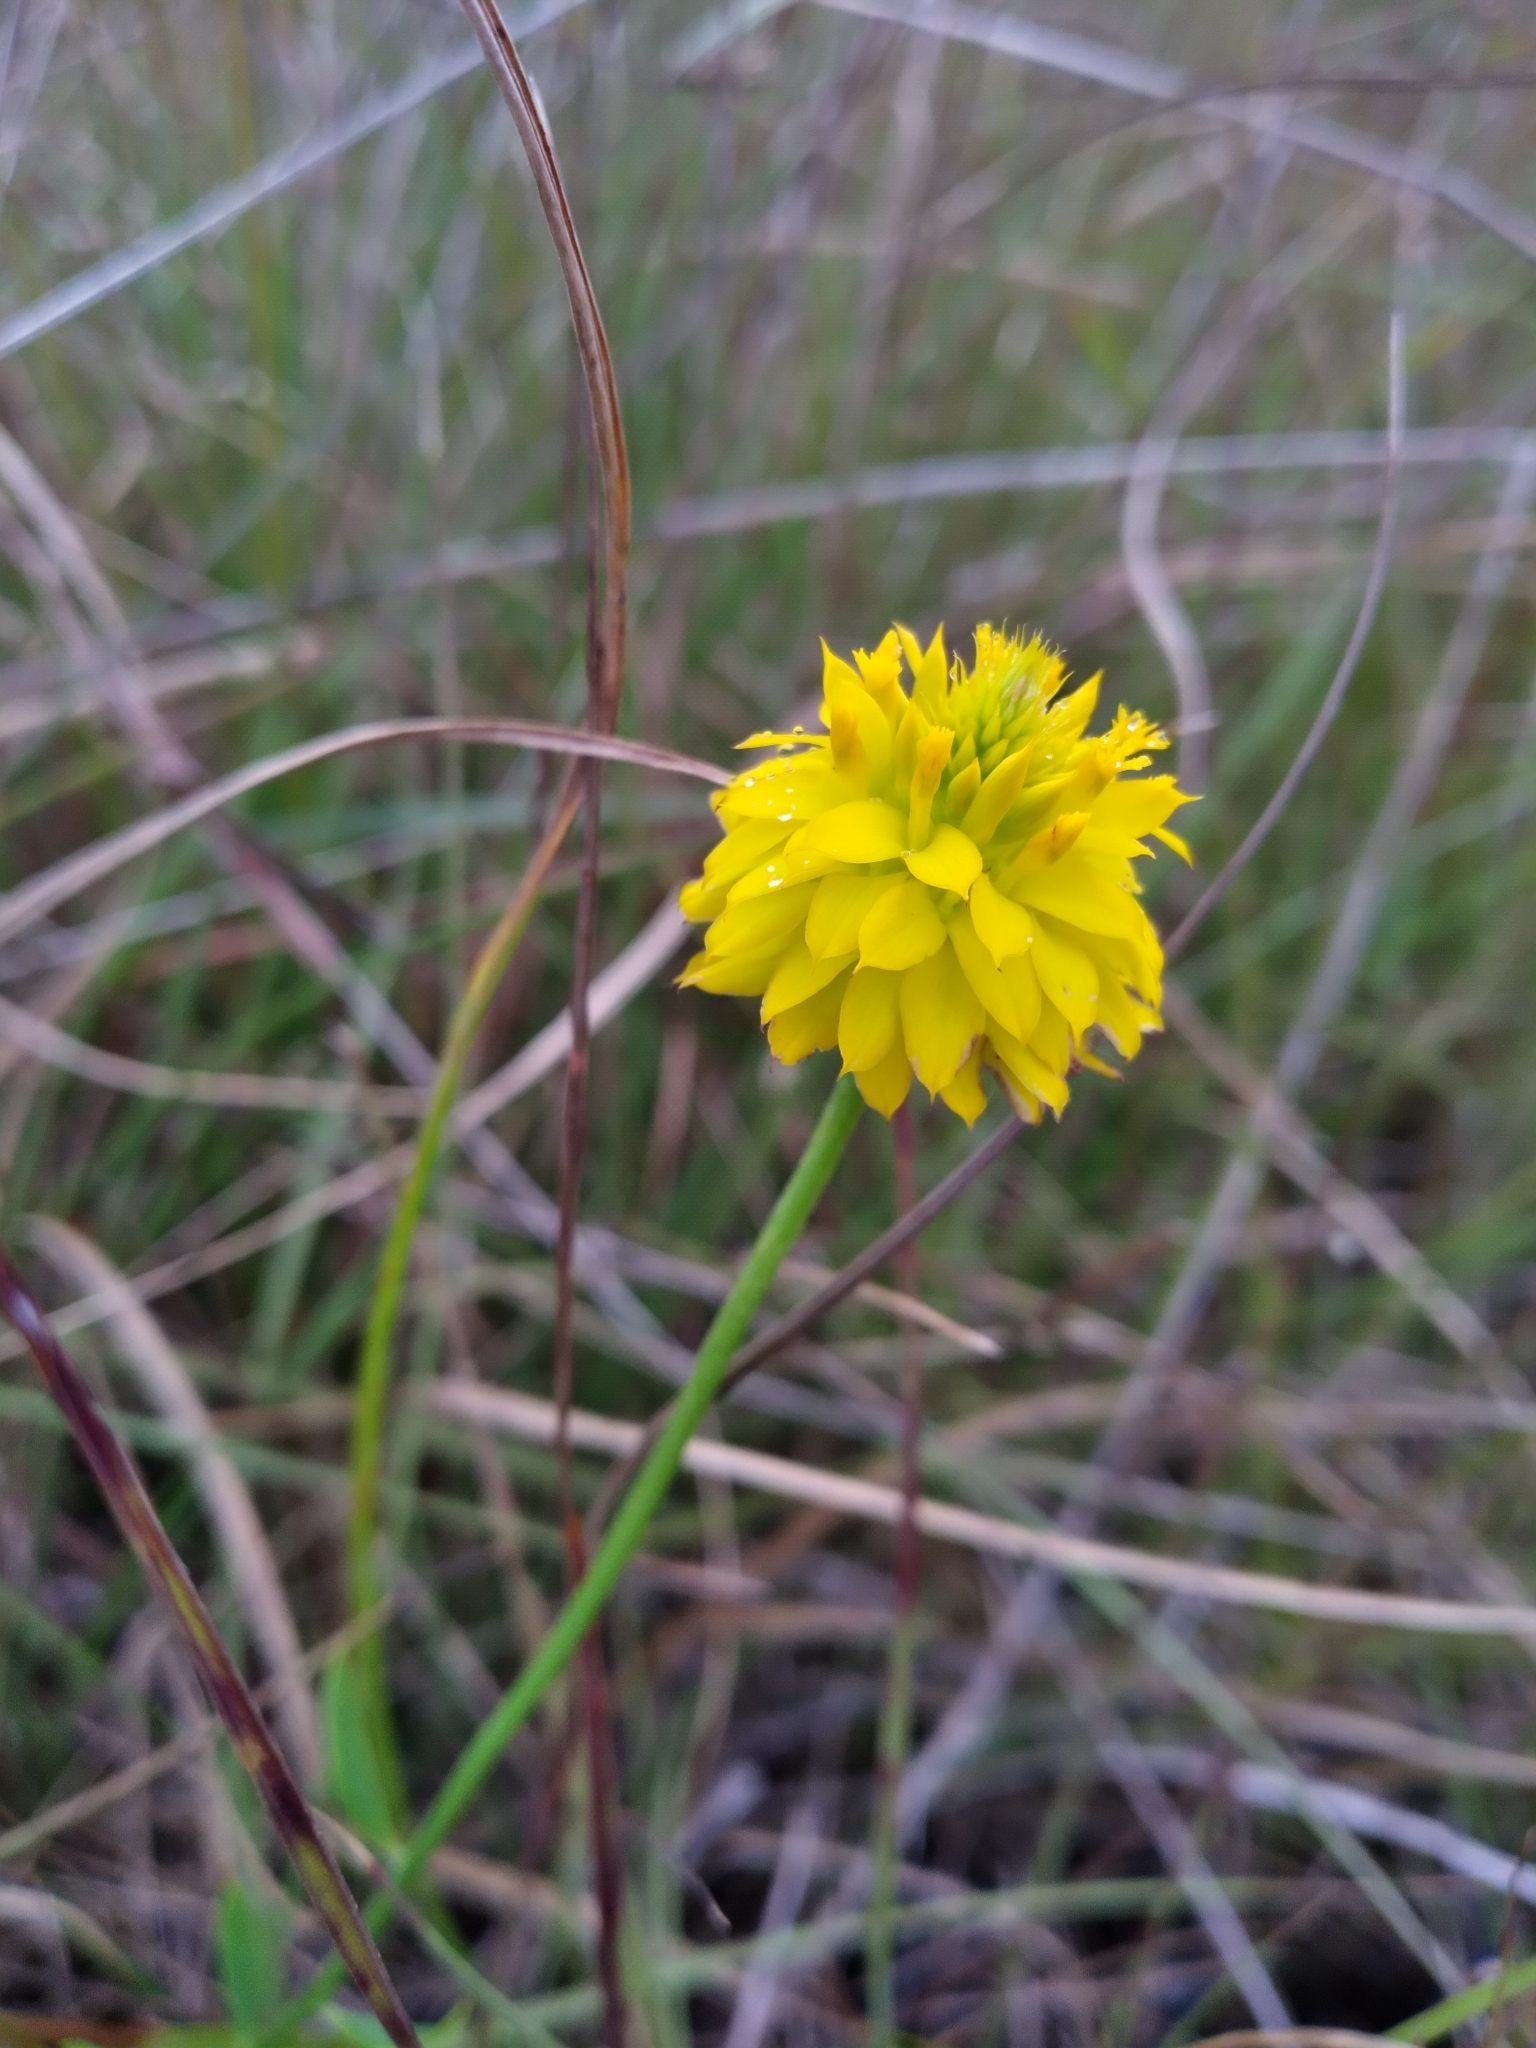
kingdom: Plantae
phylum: Tracheophyta
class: Magnoliopsida
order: Fabales
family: Polygalaceae
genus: Polygala
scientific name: Polygala rugelii
